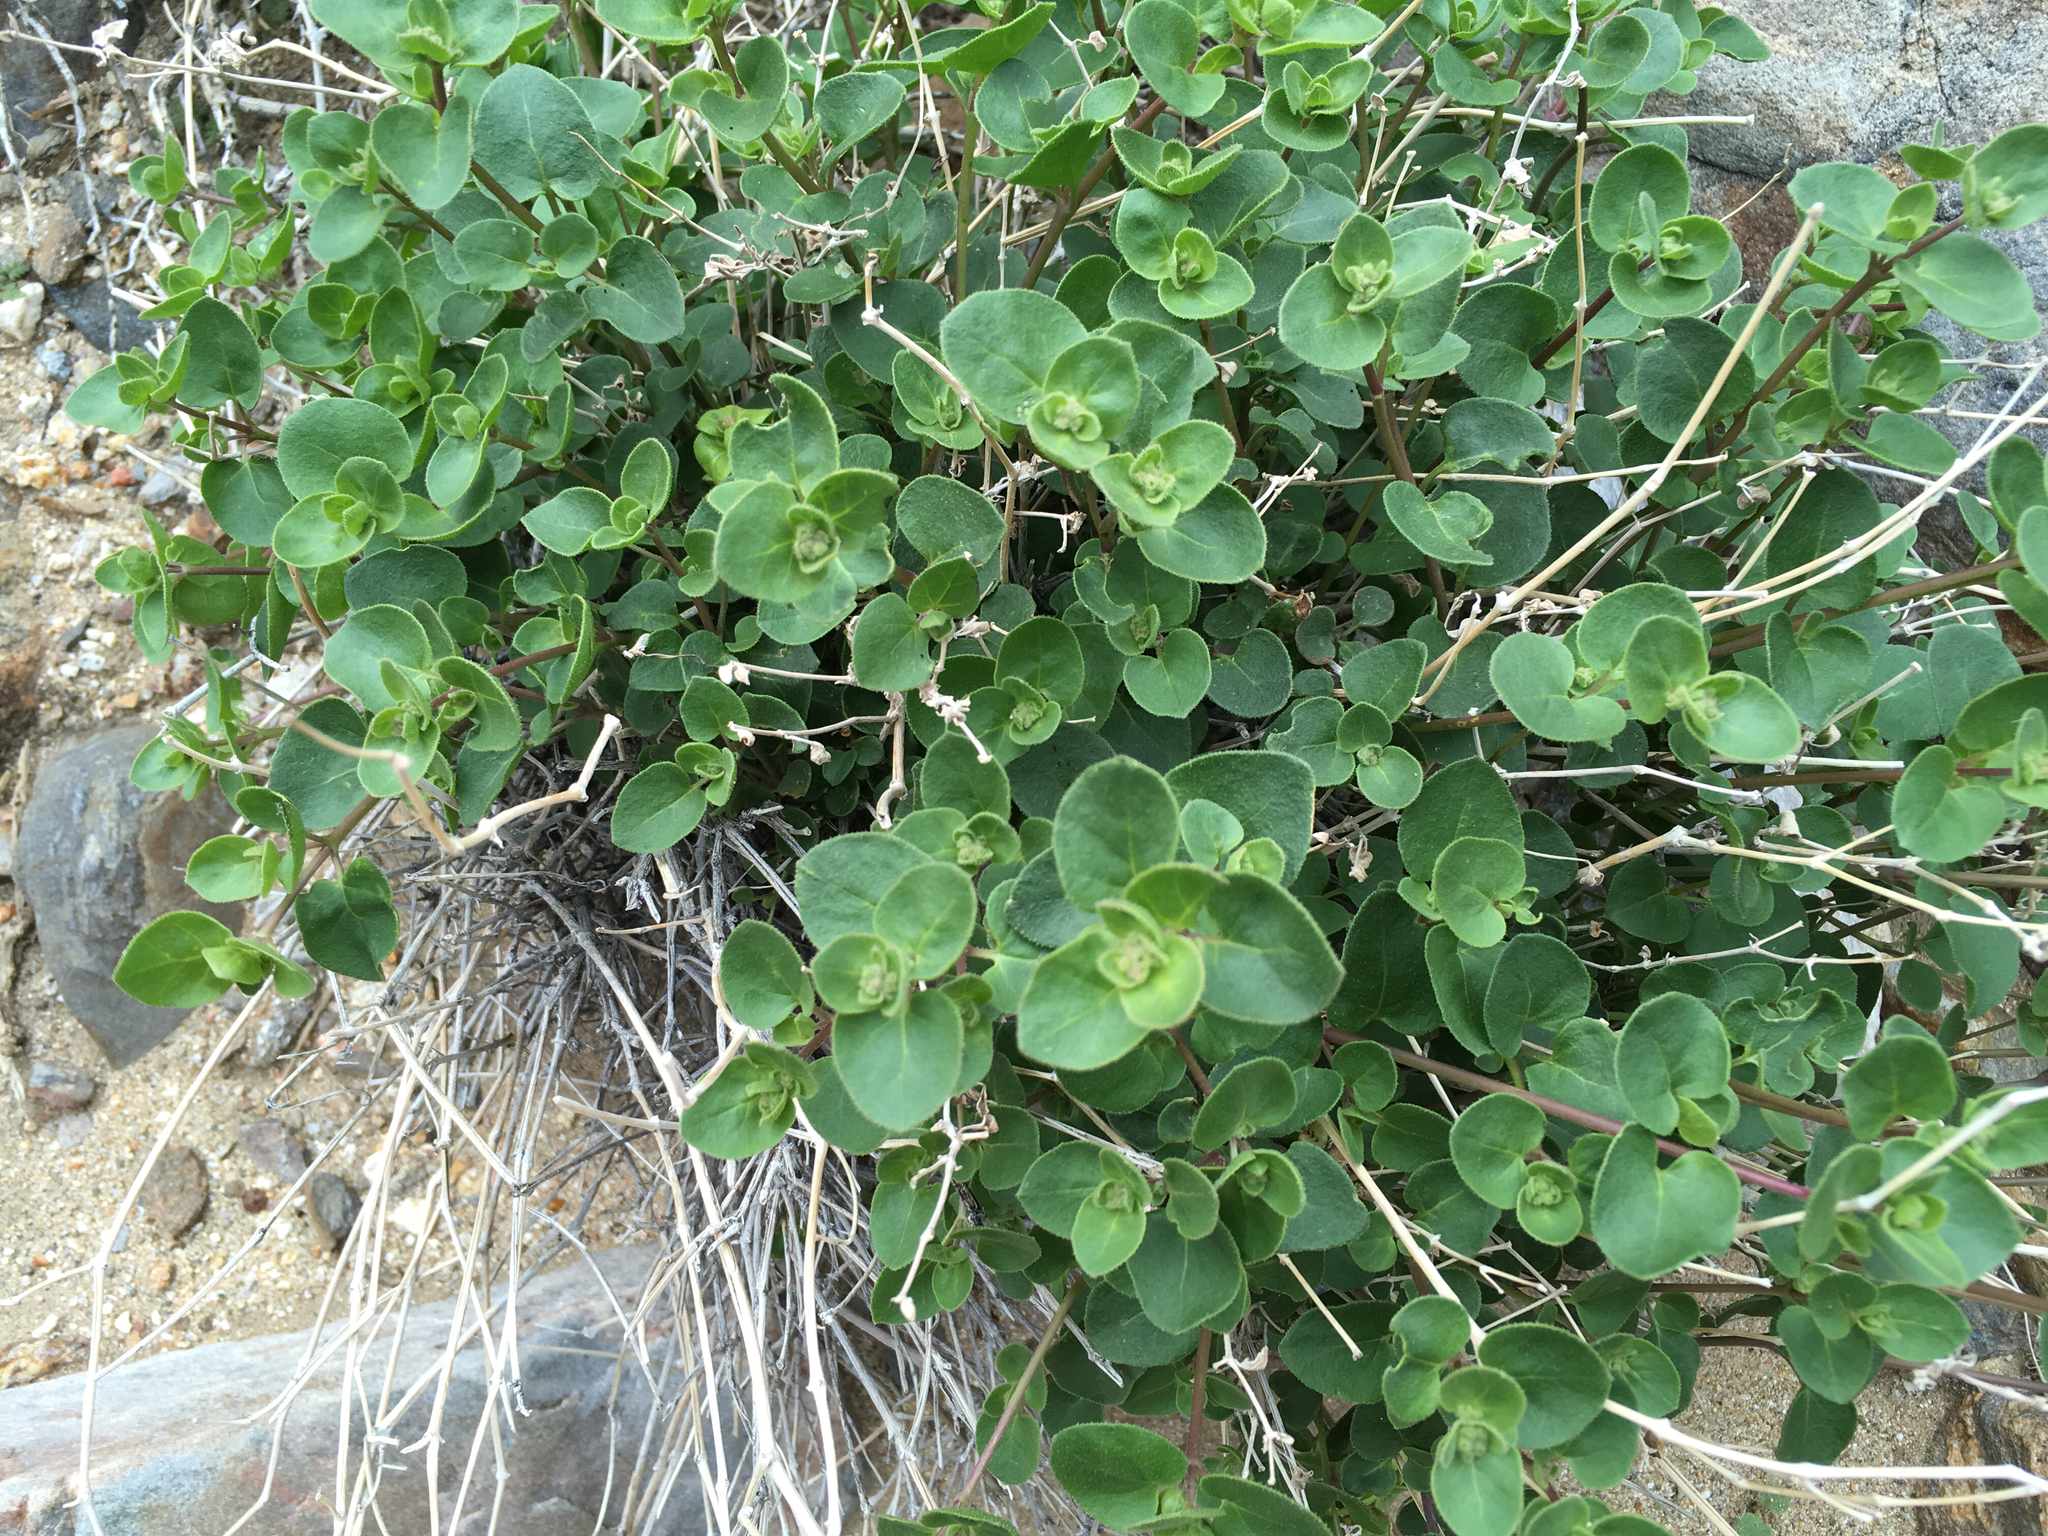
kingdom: Plantae
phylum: Tracheophyta
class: Magnoliopsida
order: Caryophyllales
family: Nyctaginaceae
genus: Mirabilis
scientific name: Mirabilis laevis
